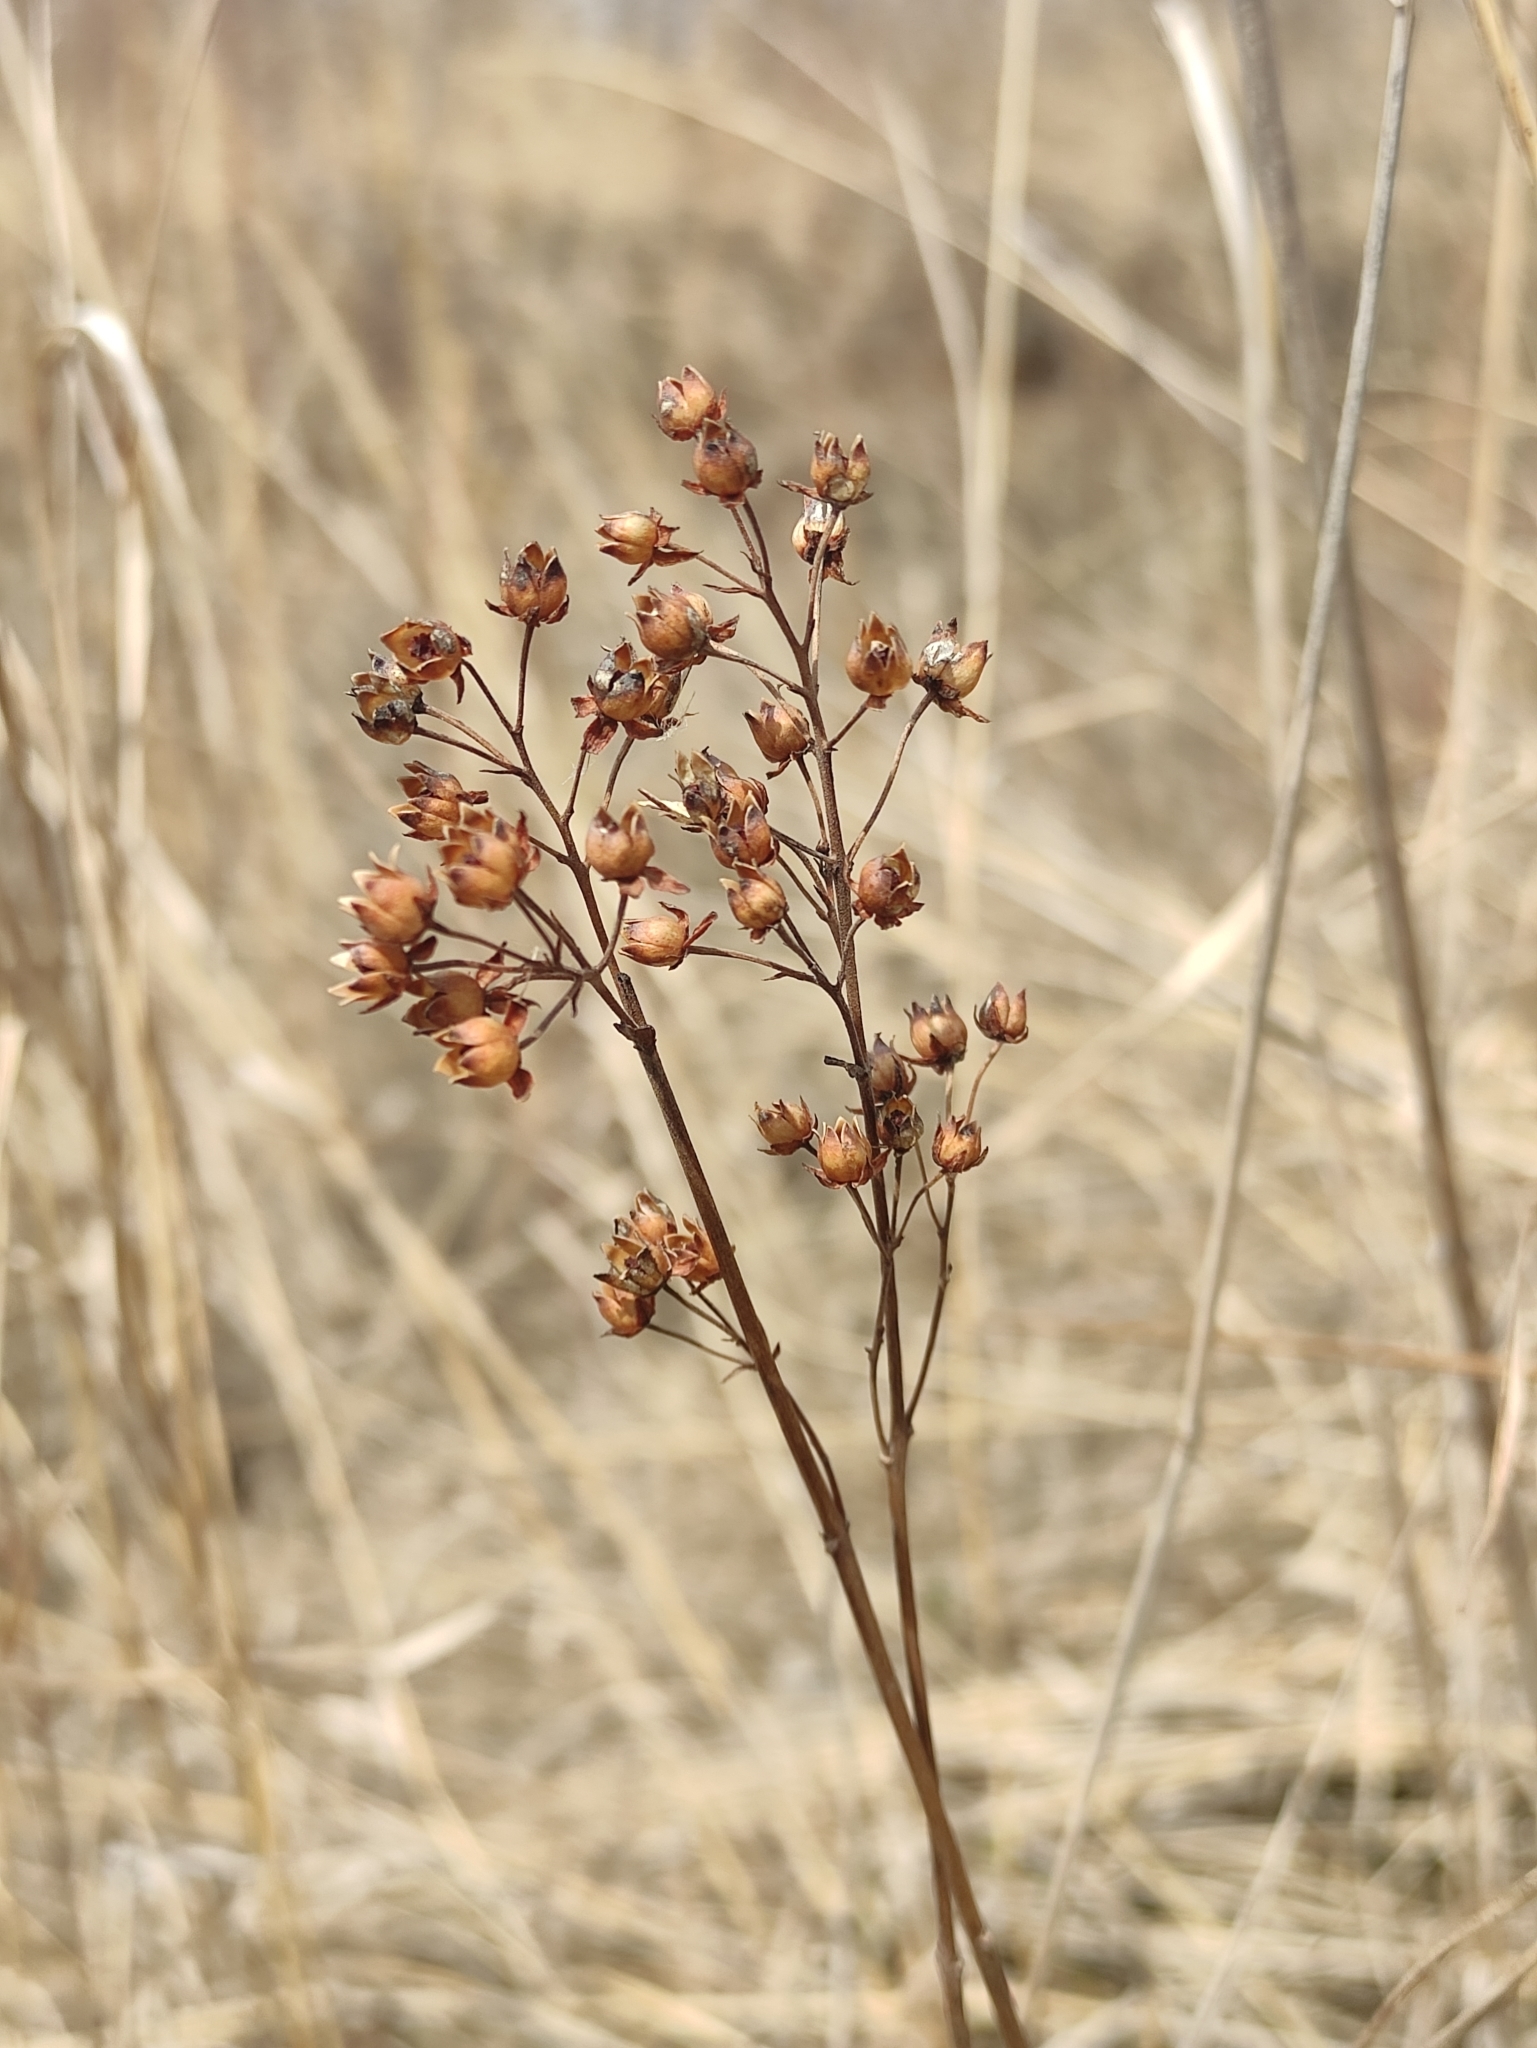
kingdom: Plantae
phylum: Tracheophyta
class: Magnoliopsida
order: Ericales
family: Primulaceae
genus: Lysimachia
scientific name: Lysimachia davurica
